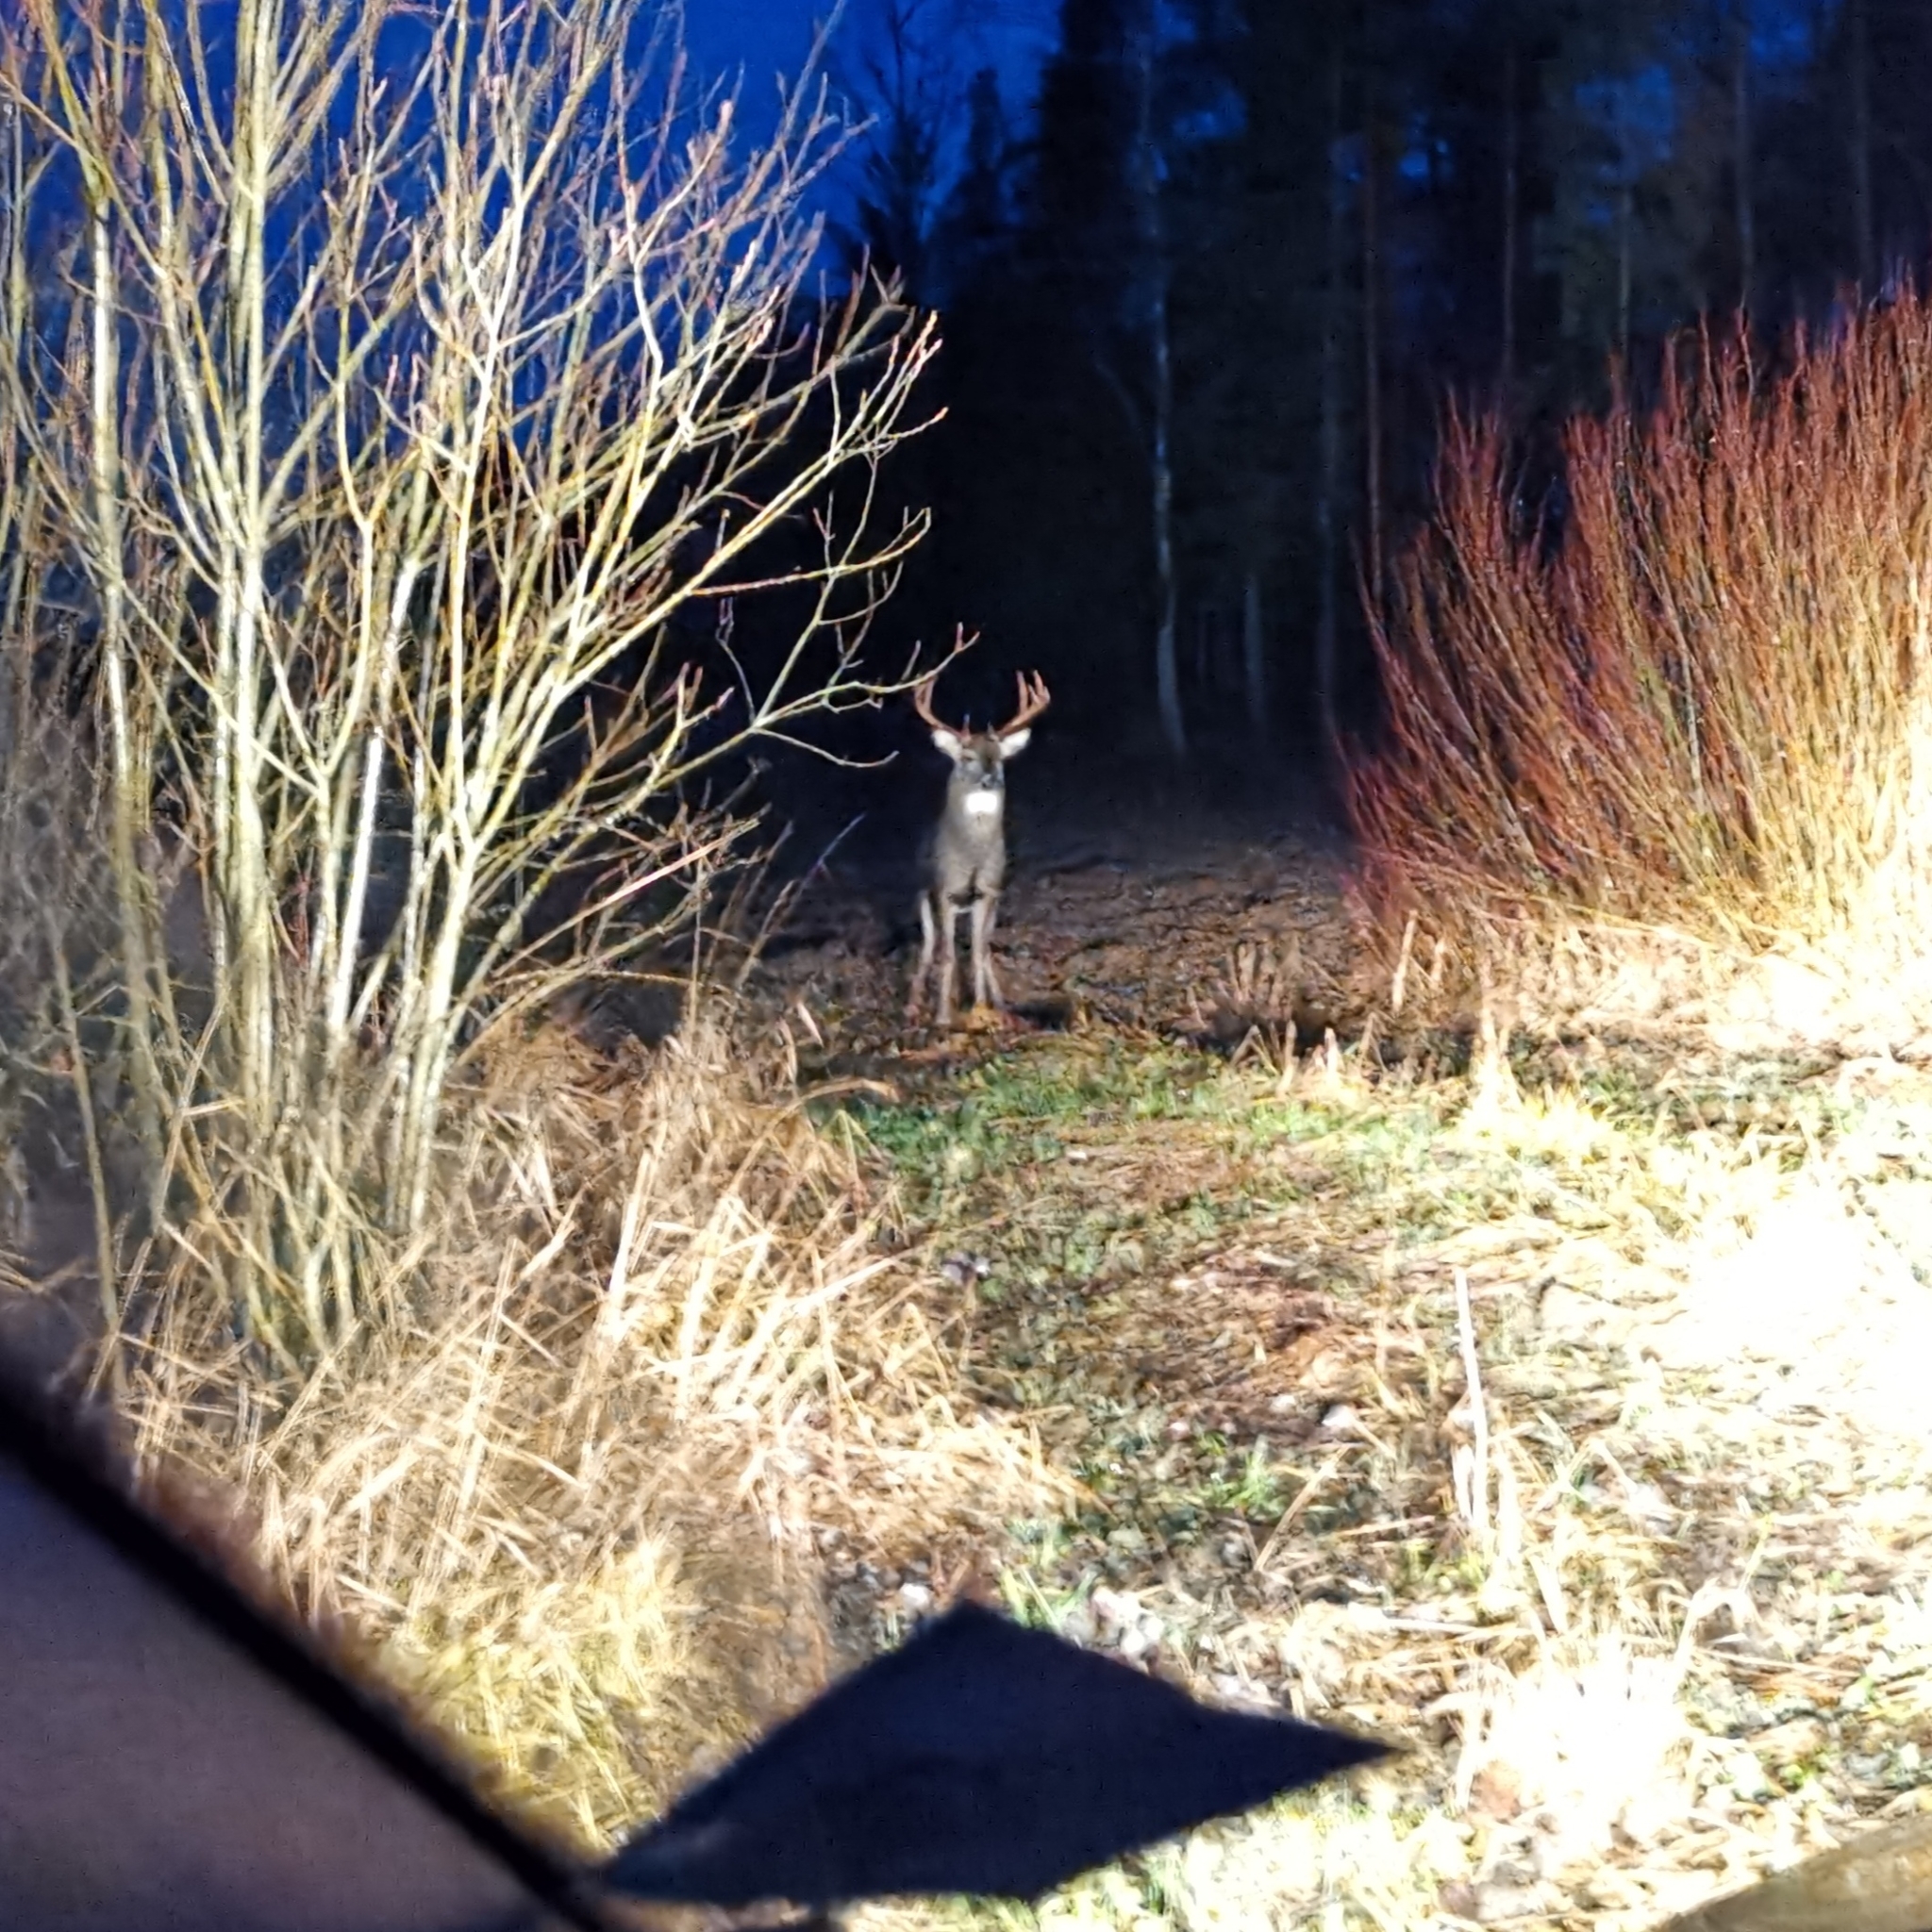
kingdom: Animalia
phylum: Chordata
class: Mammalia
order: Artiodactyla
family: Cervidae
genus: Odocoileus
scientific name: Odocoileus virginianus
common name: White-tailed deer
